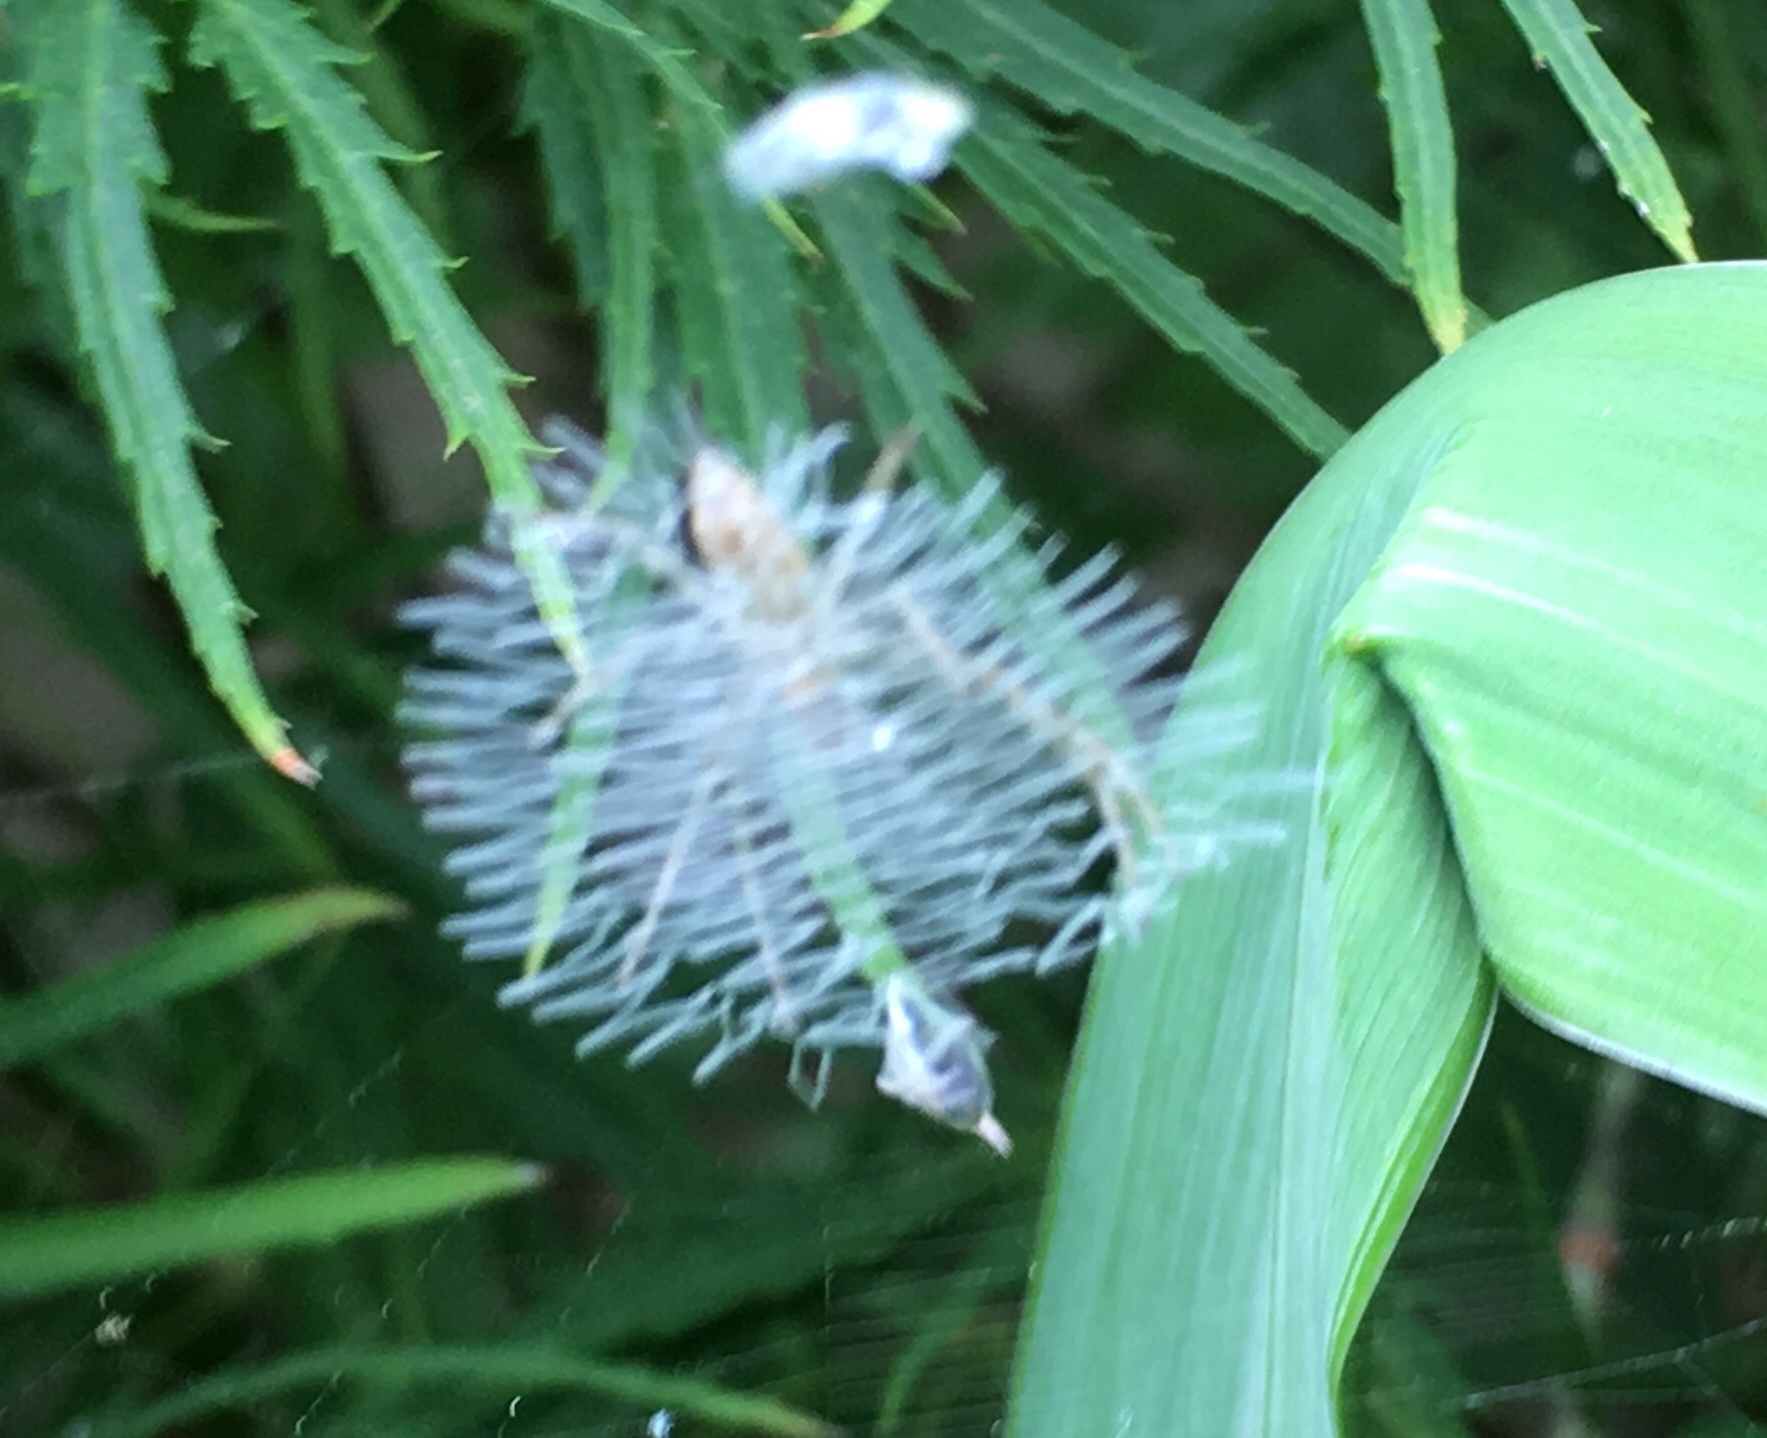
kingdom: Animalia
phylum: Arthropoda
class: Arachnida
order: Araneae
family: Araneidae
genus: Argiope
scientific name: Argiope
